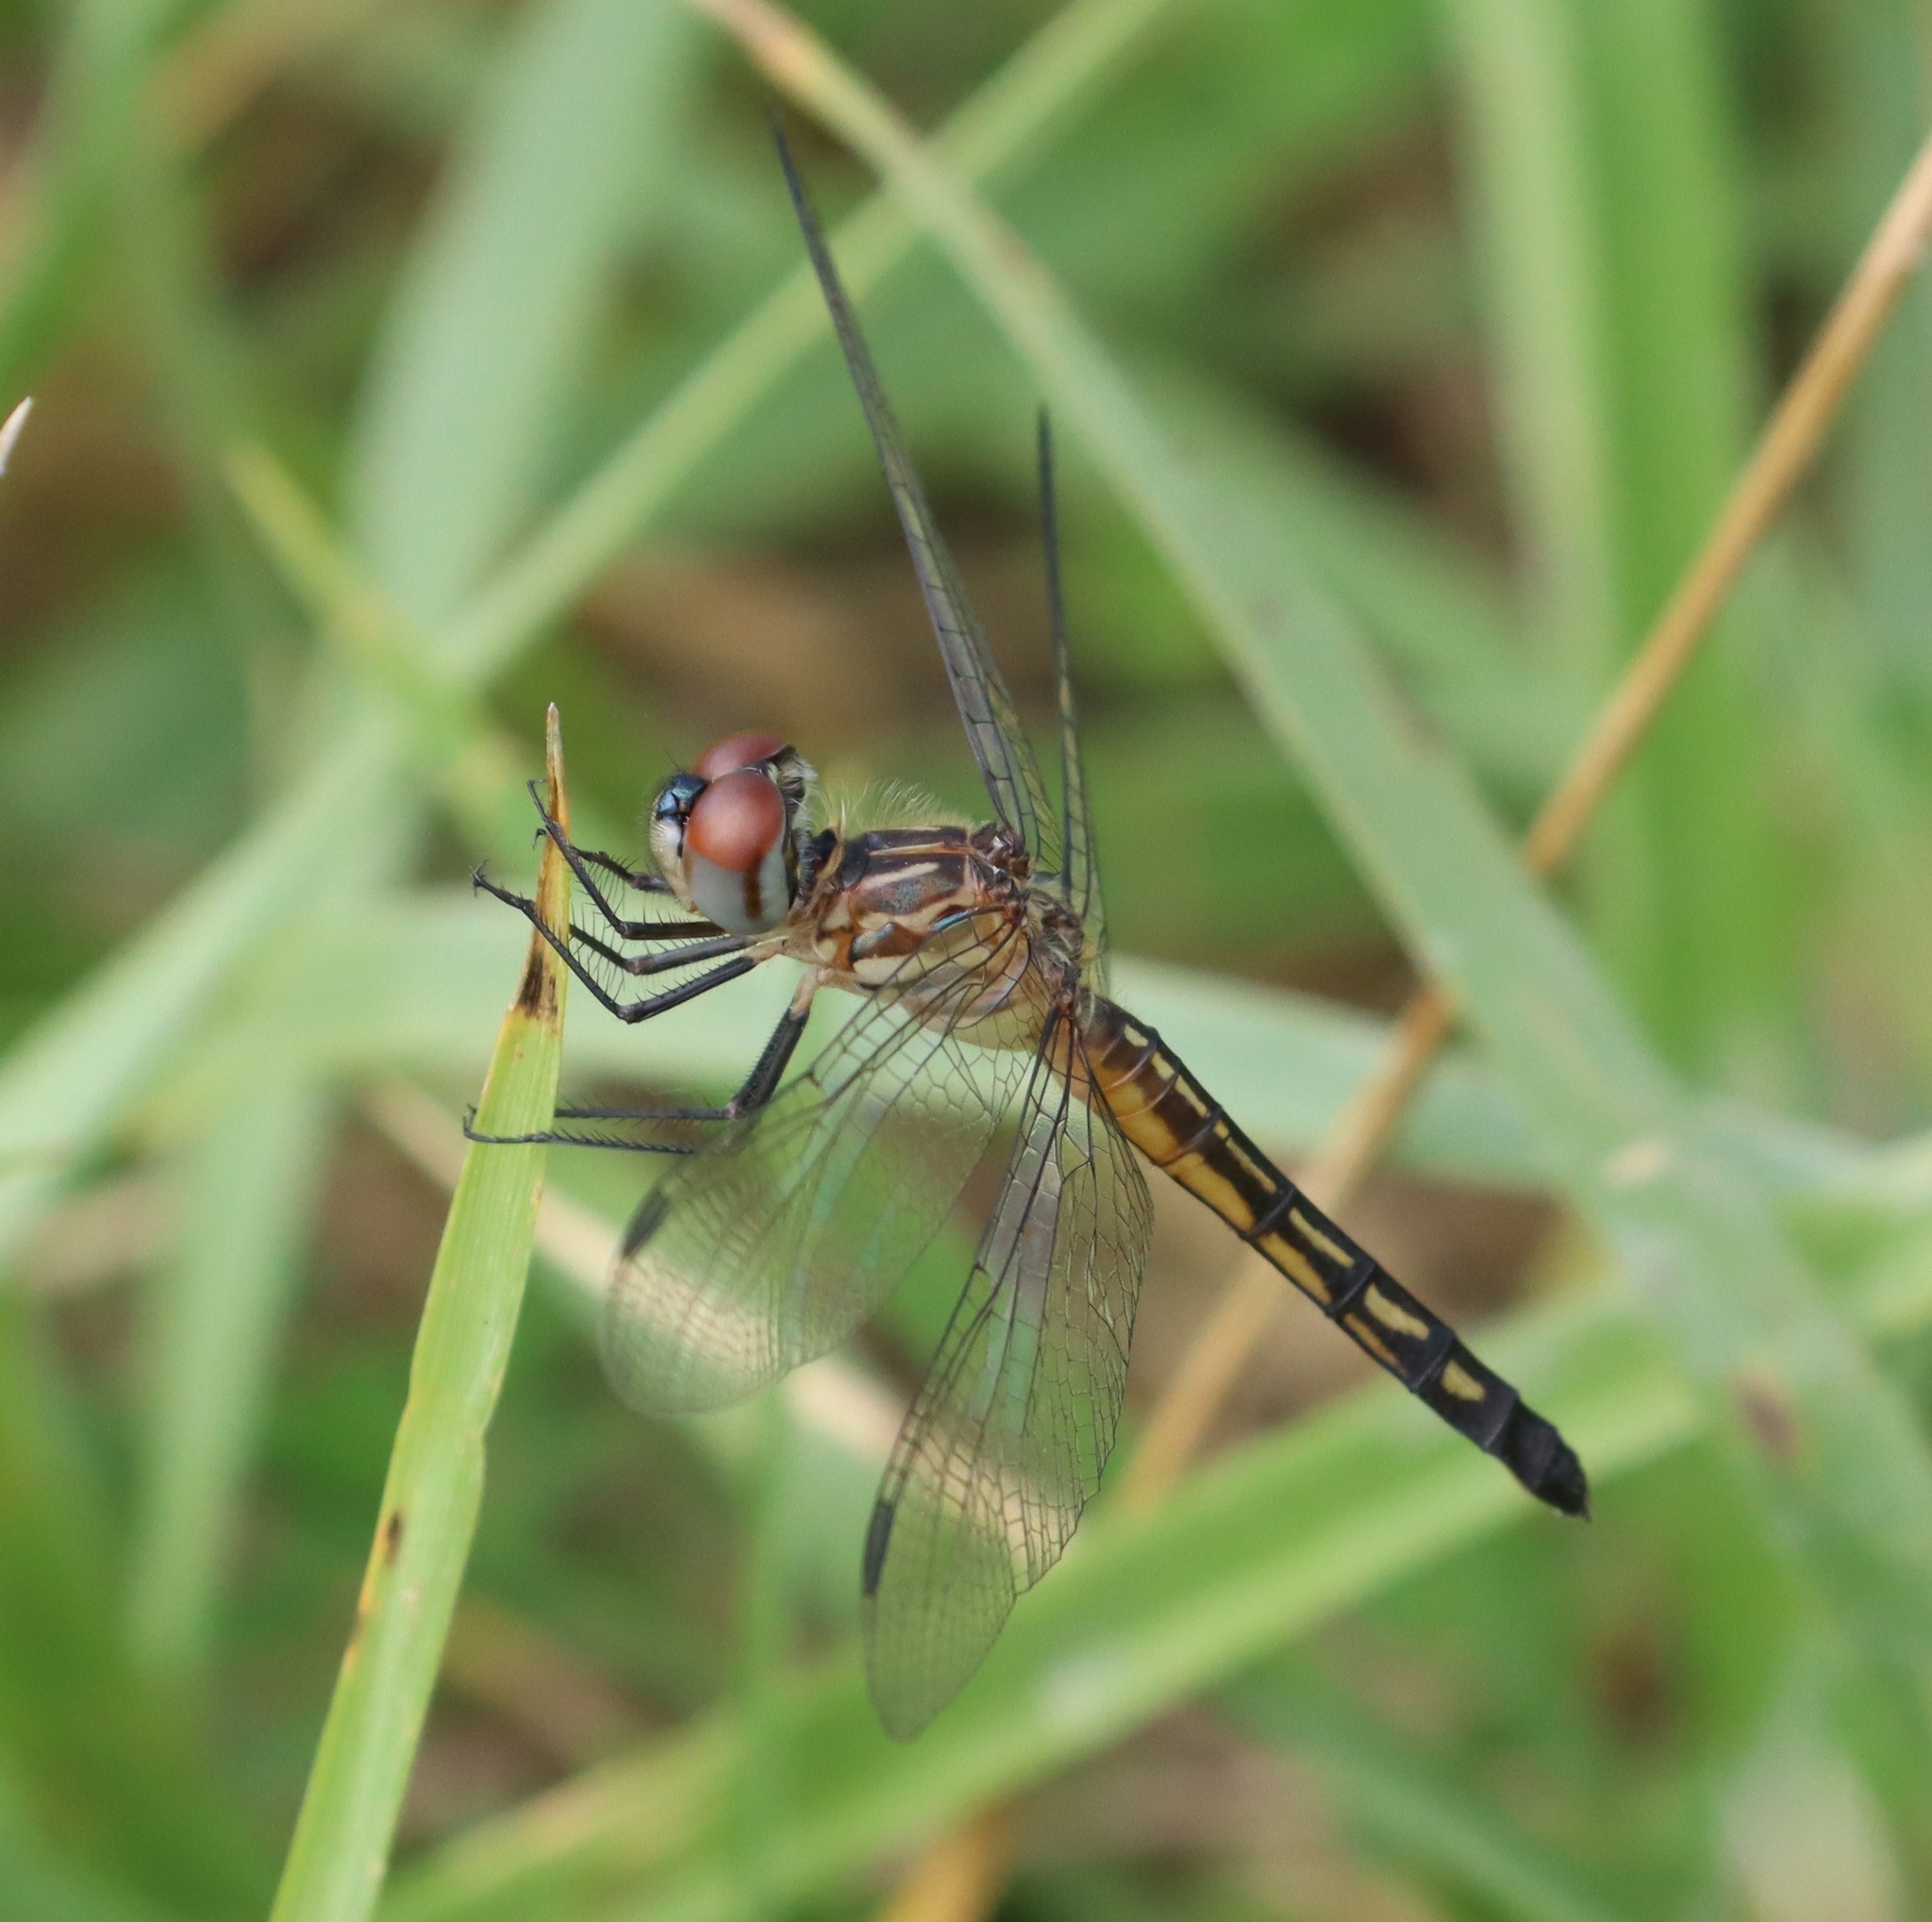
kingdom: Animalia
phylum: Arthropoda
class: Insecta
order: Odonata
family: Libellulidae
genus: Pachydiplax
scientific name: Pachydiplax longipennis
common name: Blue dasher
